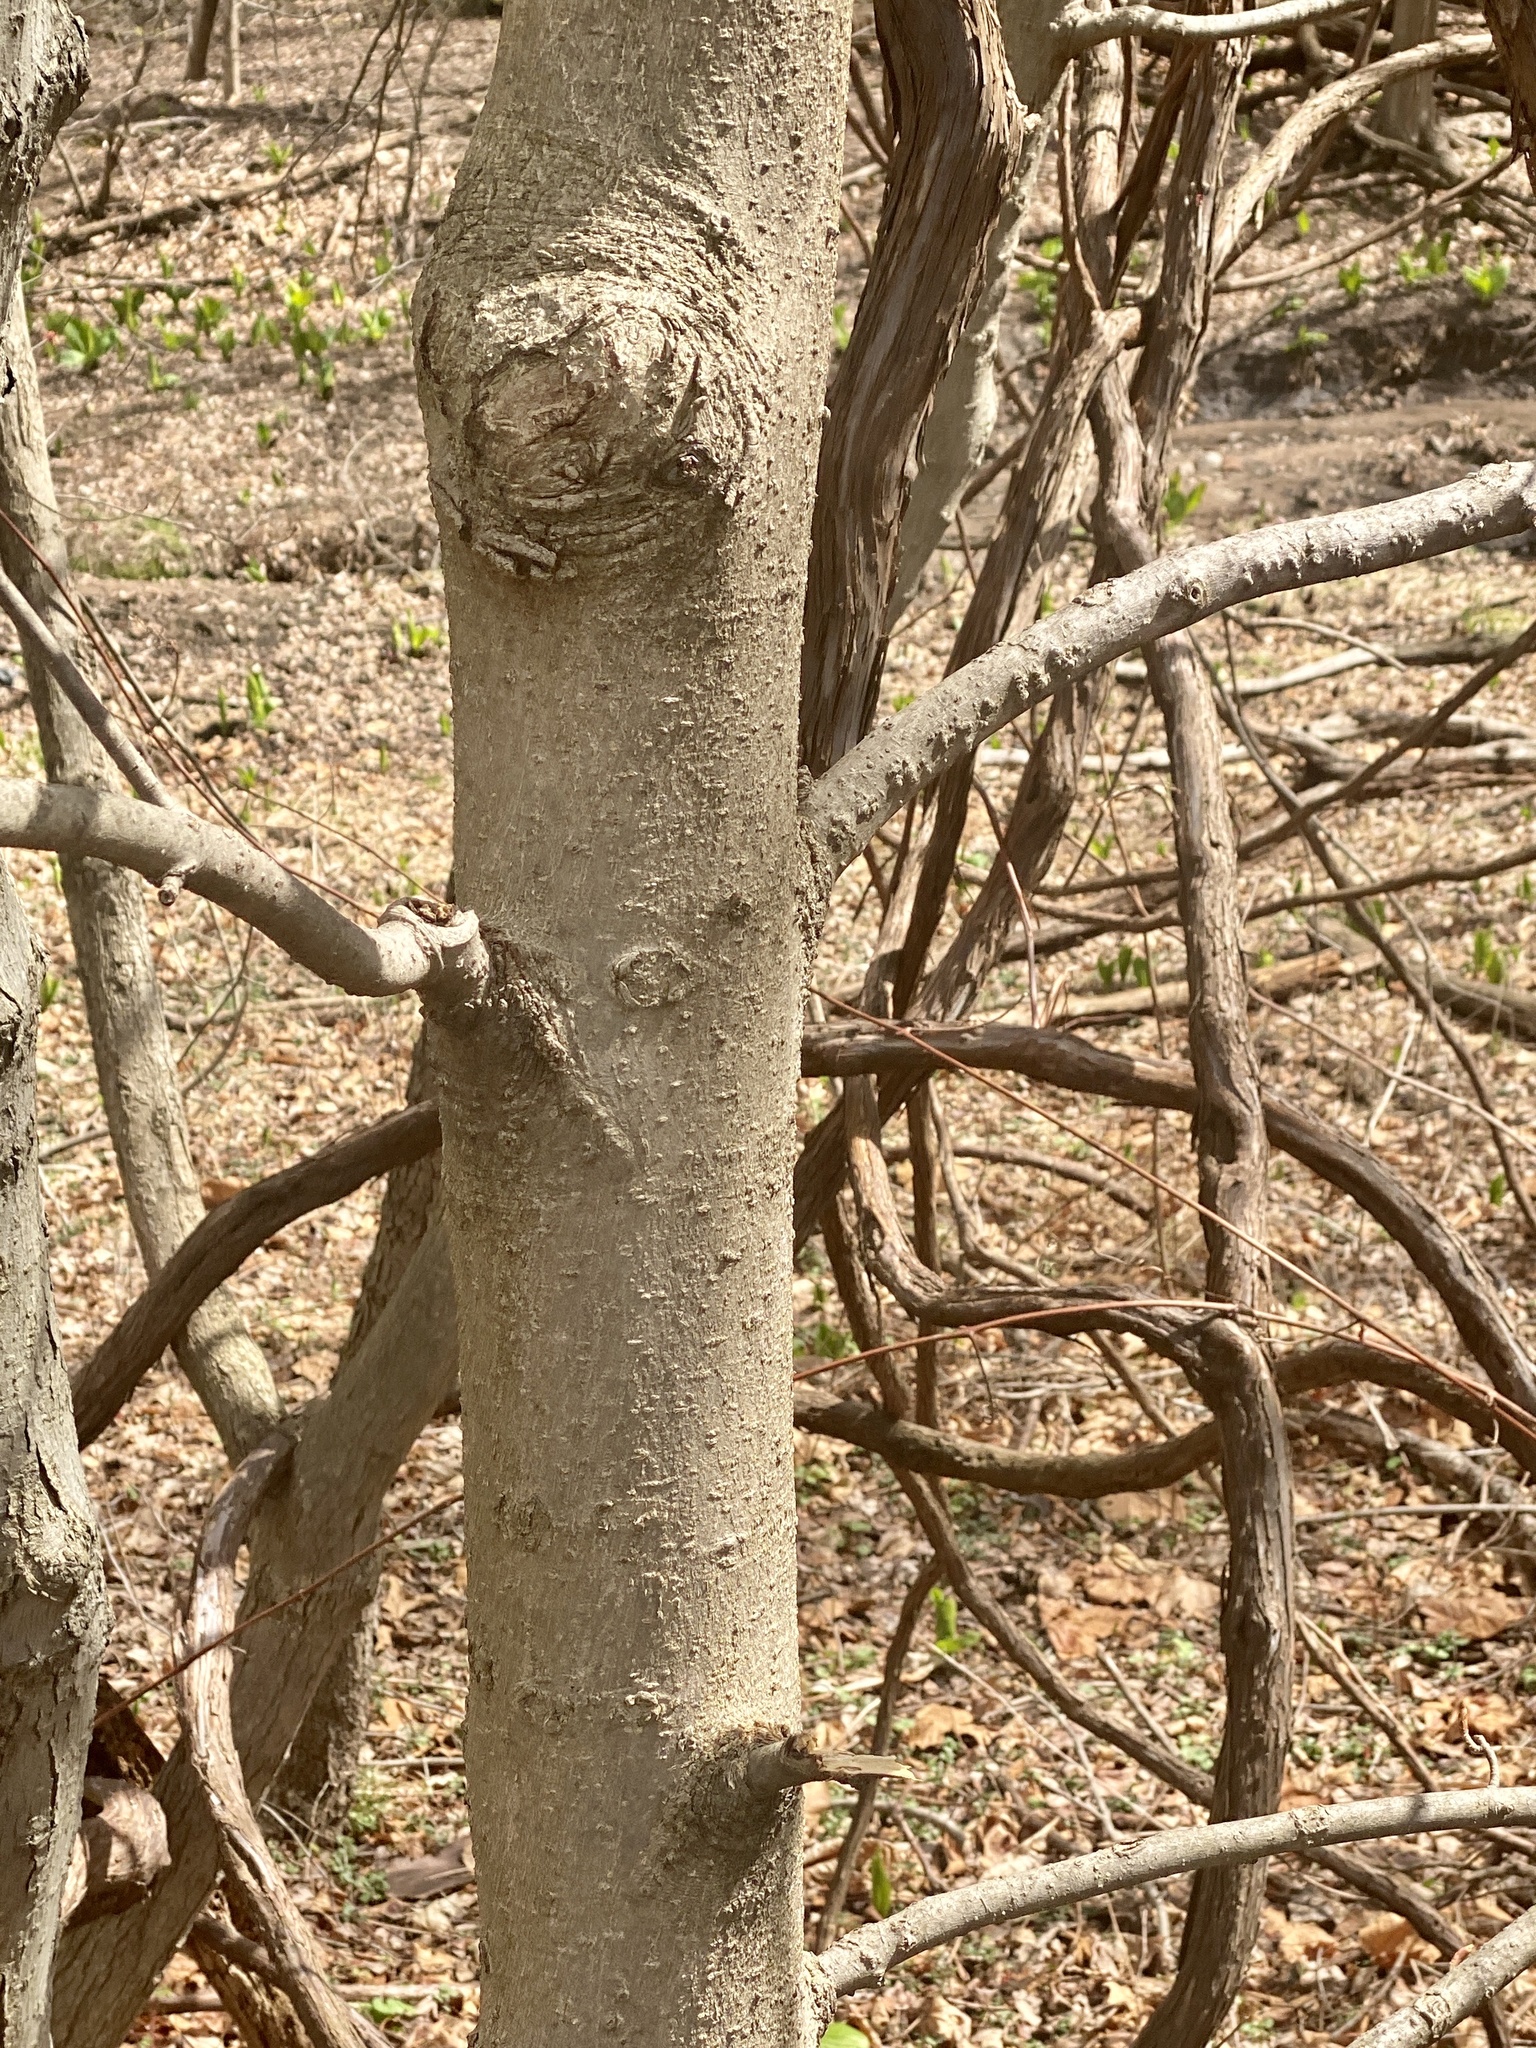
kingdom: Plantae
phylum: Tracheophyta
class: Magnoliopsida
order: Sapindales
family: Sapindaceae
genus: Aesculus
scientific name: Aesculus flava
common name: Yellow buckeye
